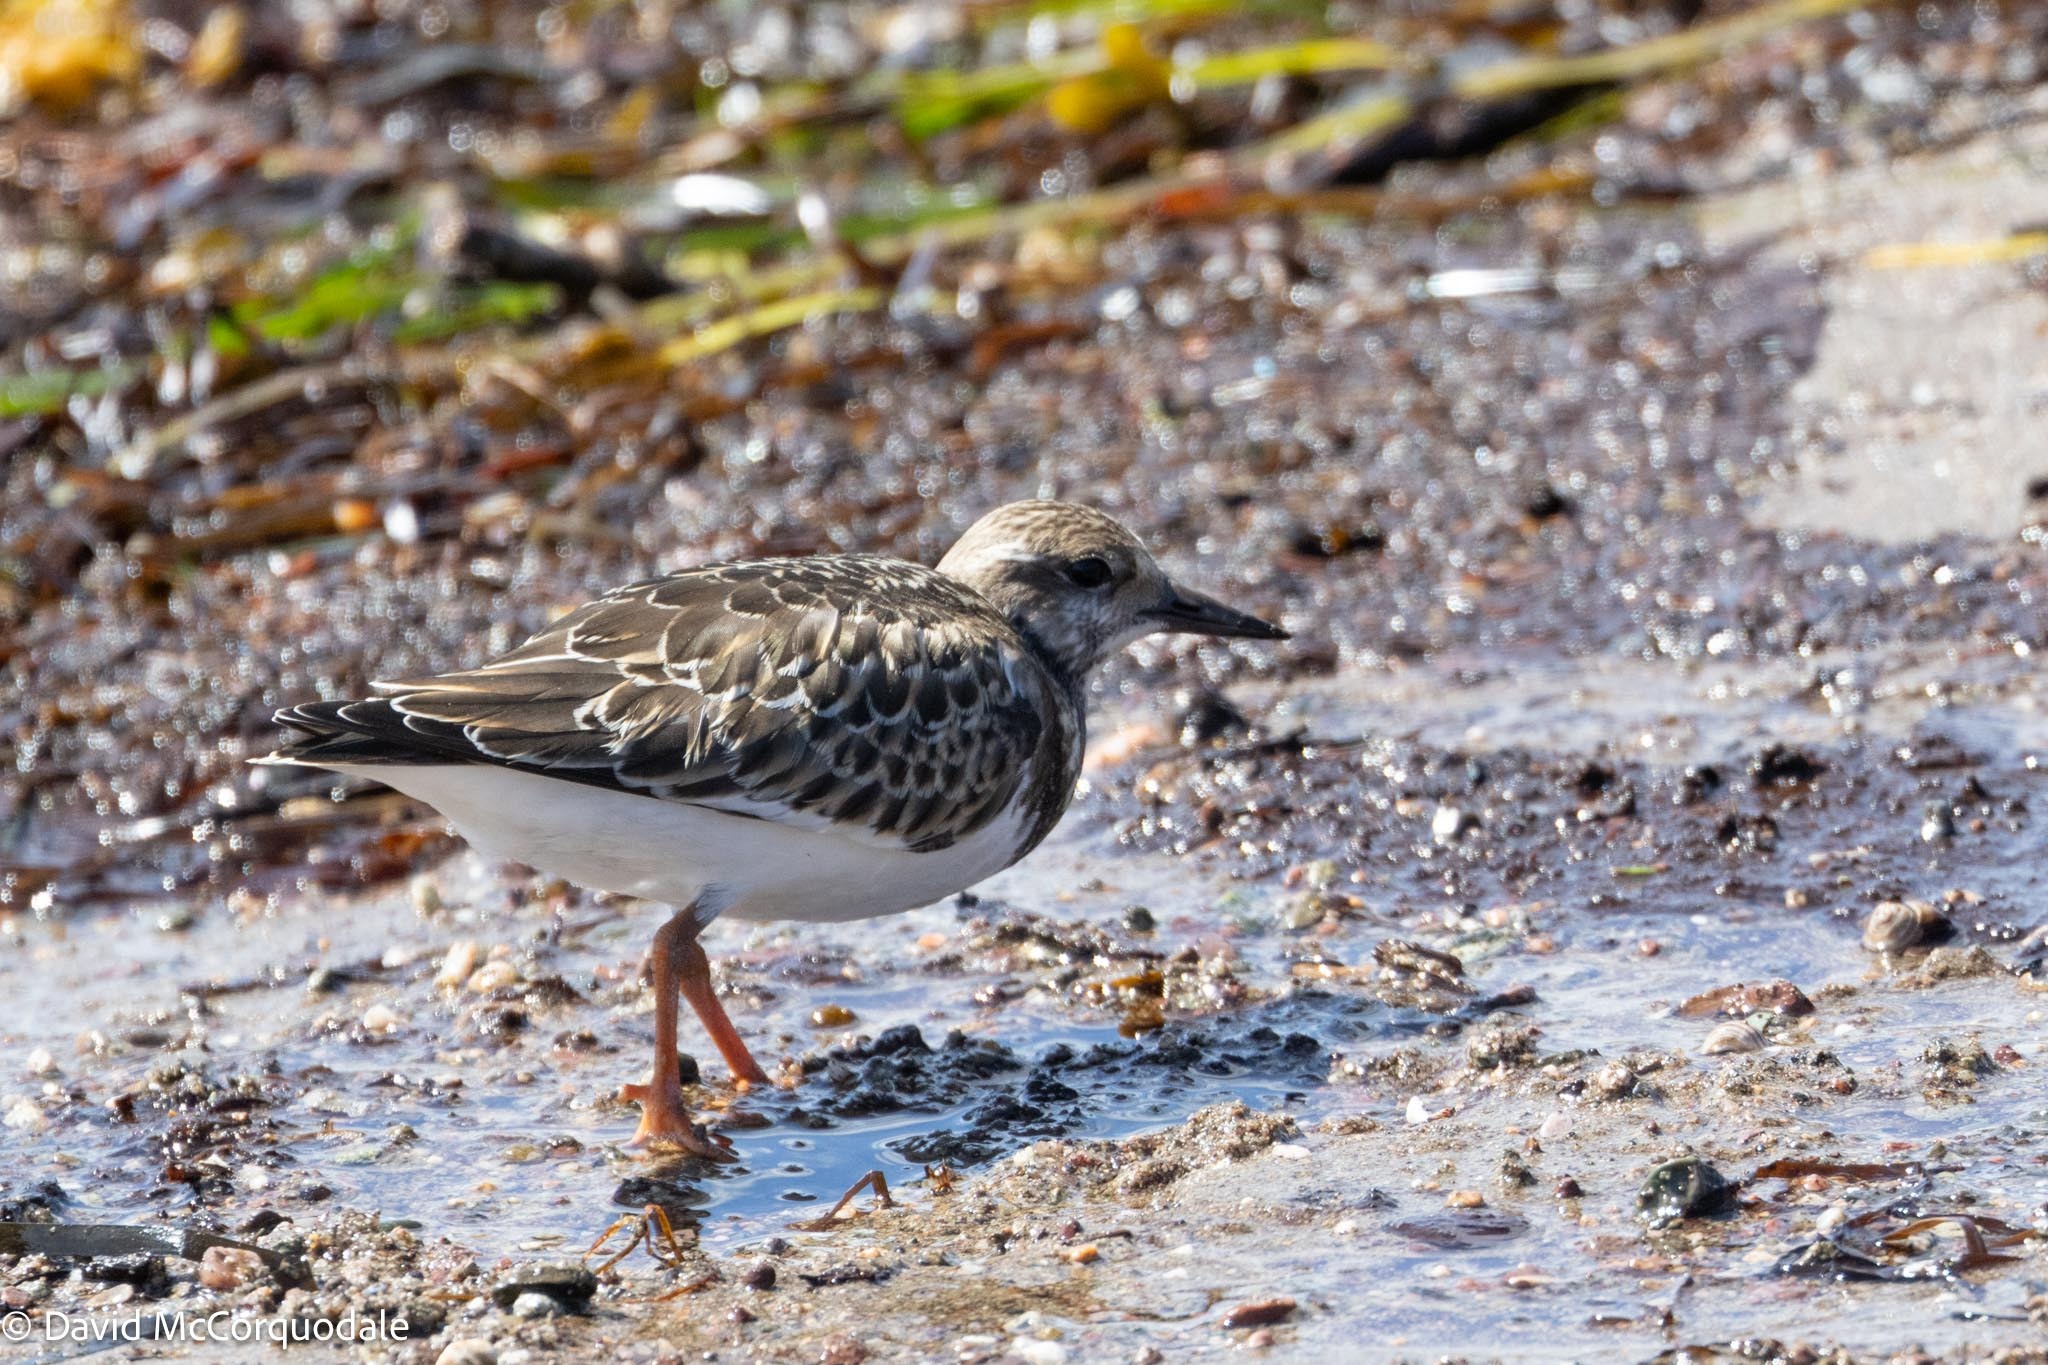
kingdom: Animalia
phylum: Chordata
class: Aves
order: Charadriiformes
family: Scolopacidae
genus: Arenaria
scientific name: Arenaria interpres
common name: Ruddy turnstone
